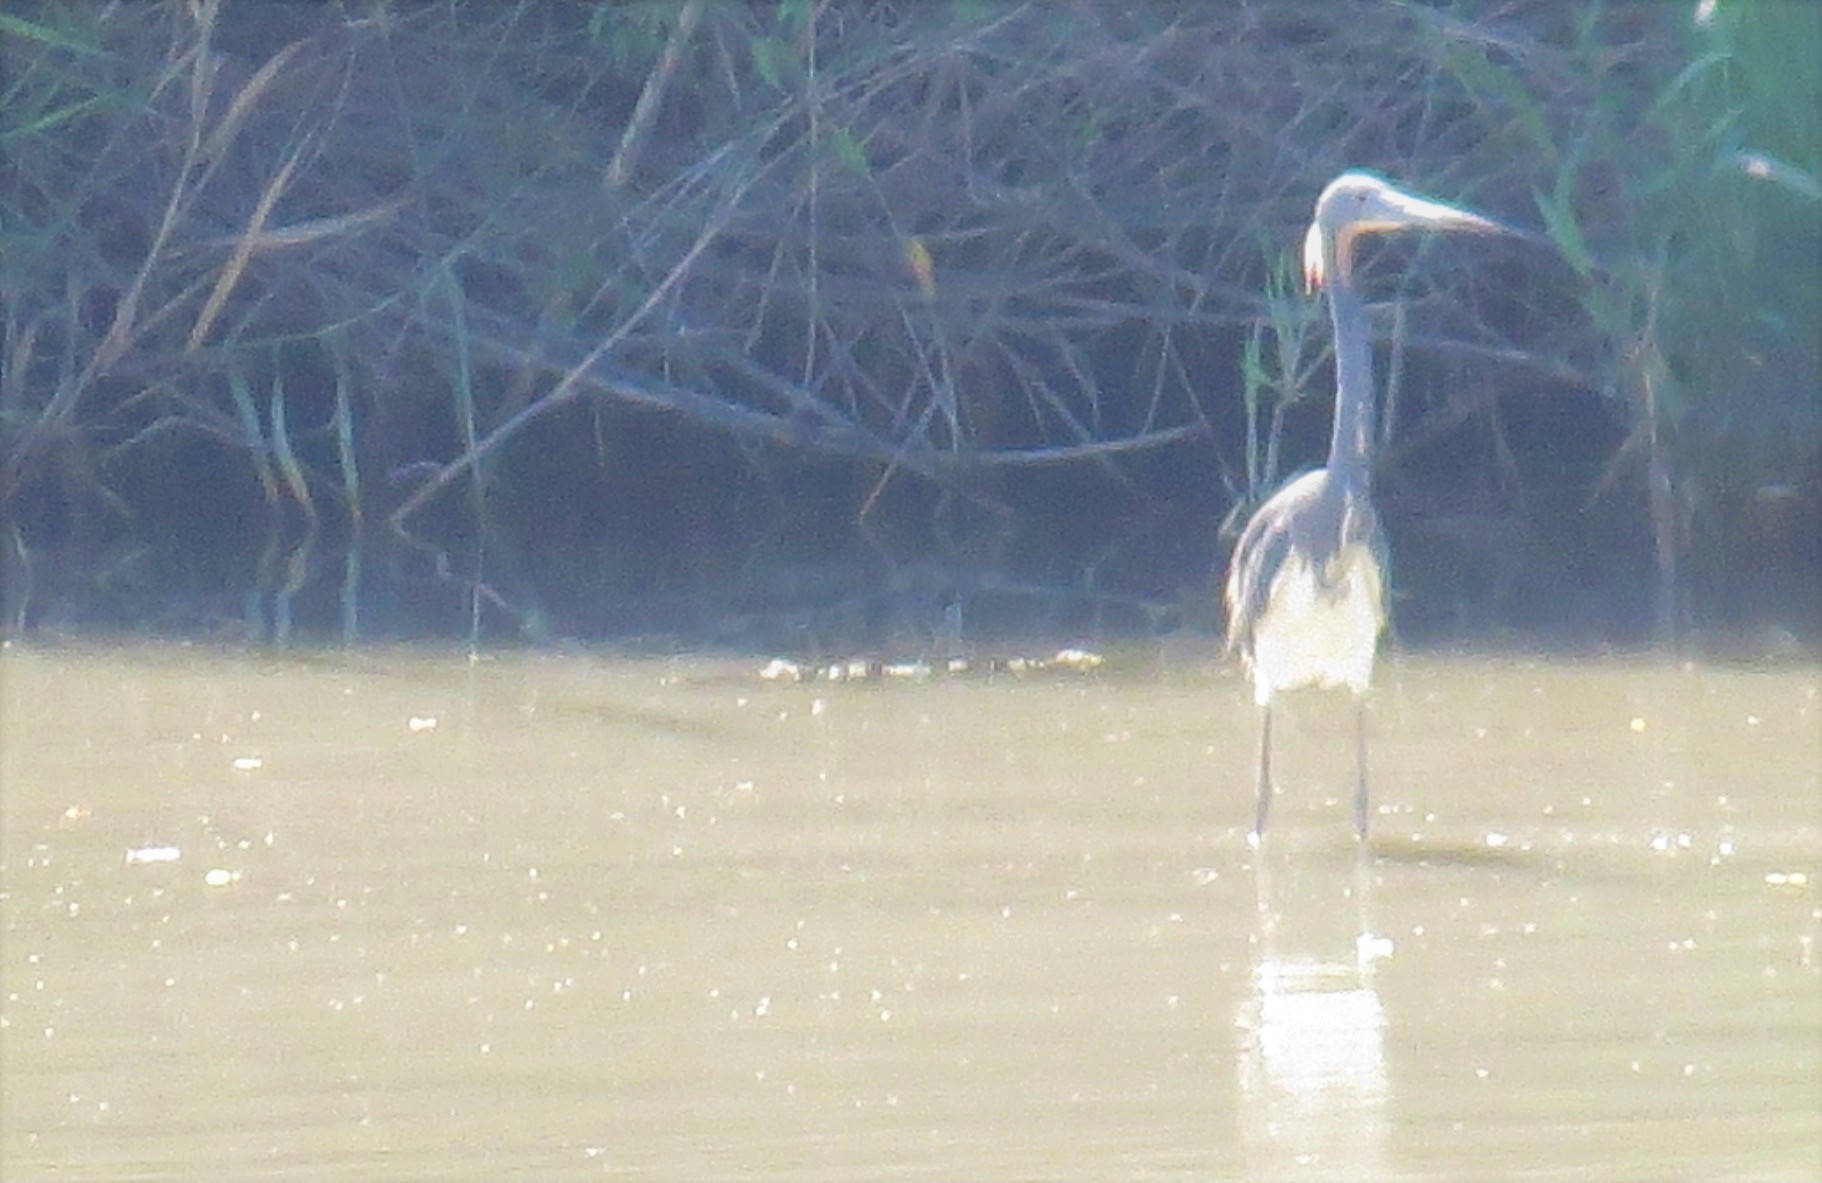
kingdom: Animalia
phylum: Chordata
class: Aves
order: Pelecaniformes
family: Ardeidae
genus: Egretta
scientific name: Egretta tricolor
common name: Tricolored heron
